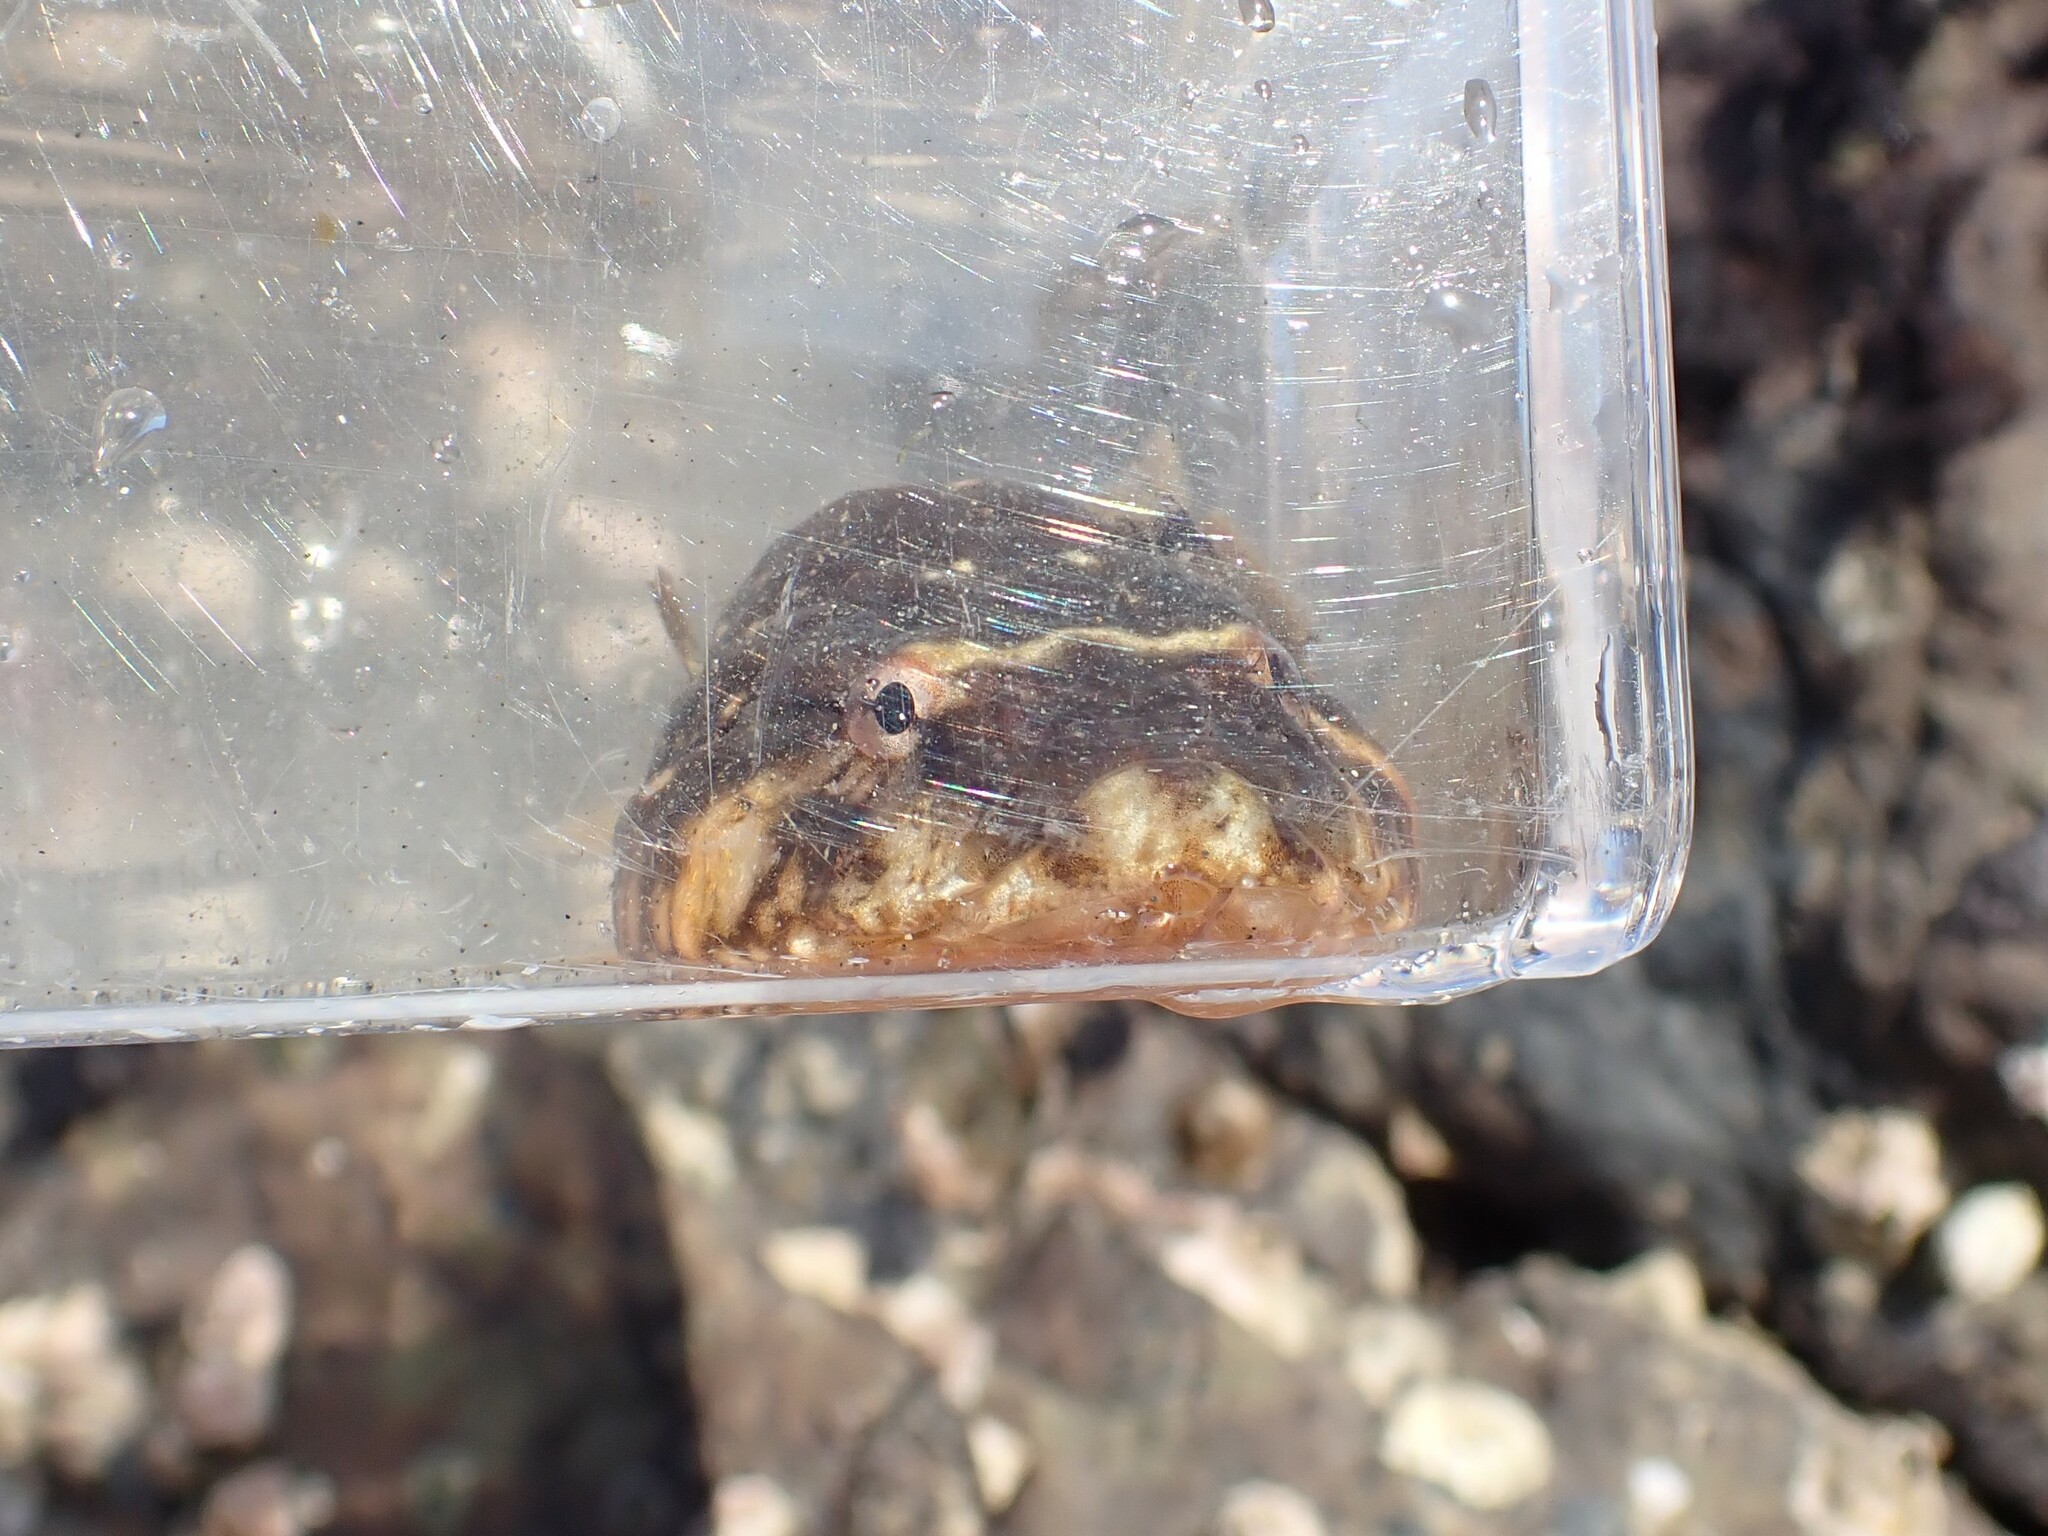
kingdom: Animalia
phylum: Chordata
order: Gobiesociformes
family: Gobiesocidae
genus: Gobiesox
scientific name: Gobiesox maeandricus
